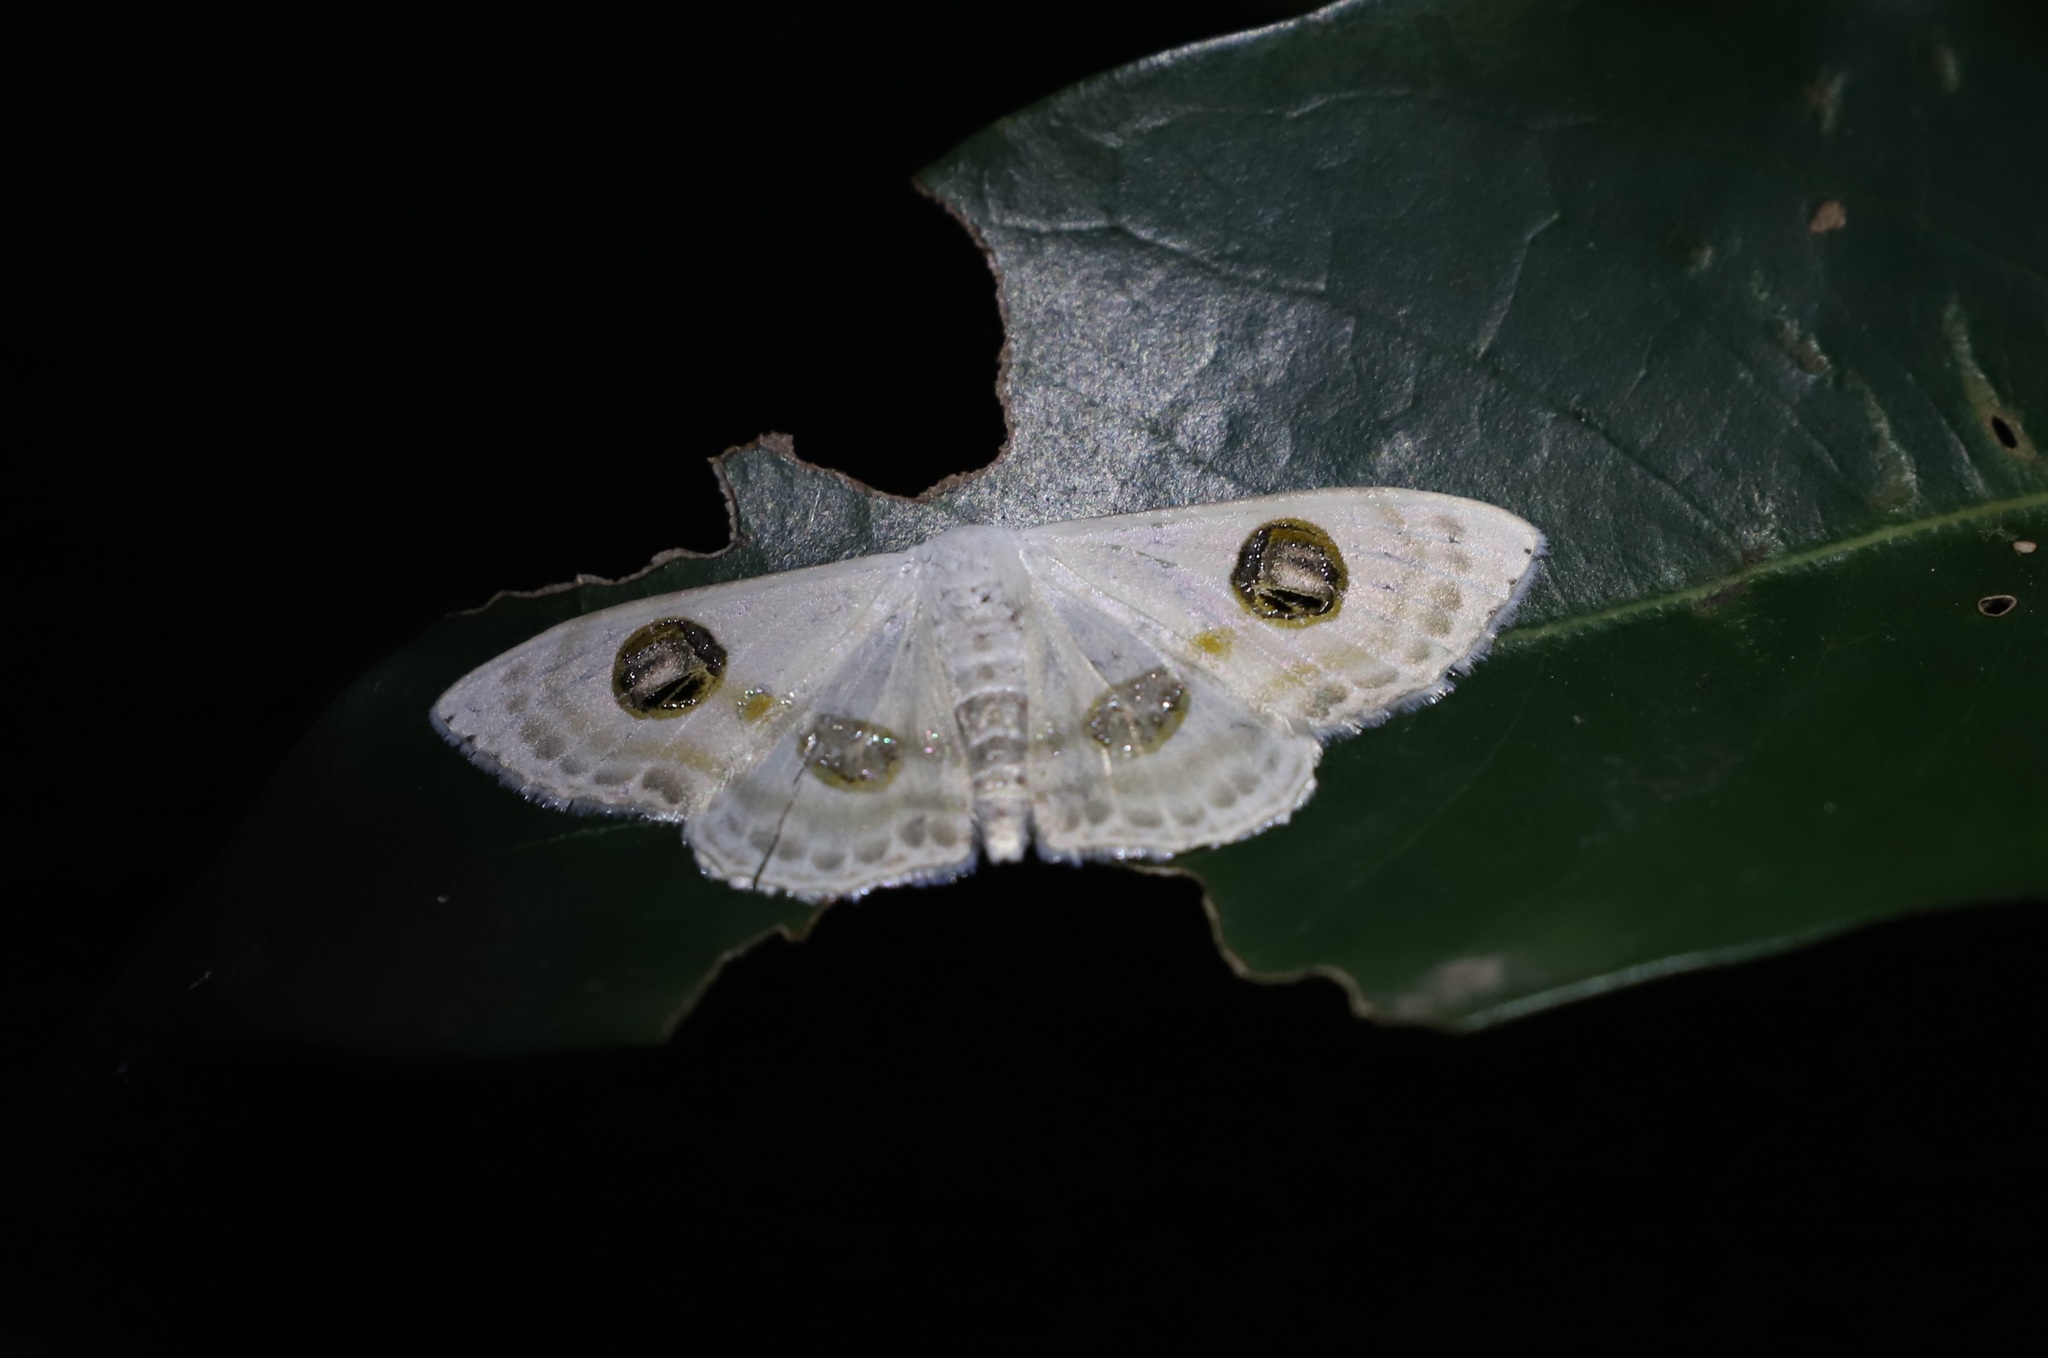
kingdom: Animalia
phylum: Arthropoda
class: Insecta
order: Lepidoptera
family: Geometridae
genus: Problepsis
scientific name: Problepsis albidior
